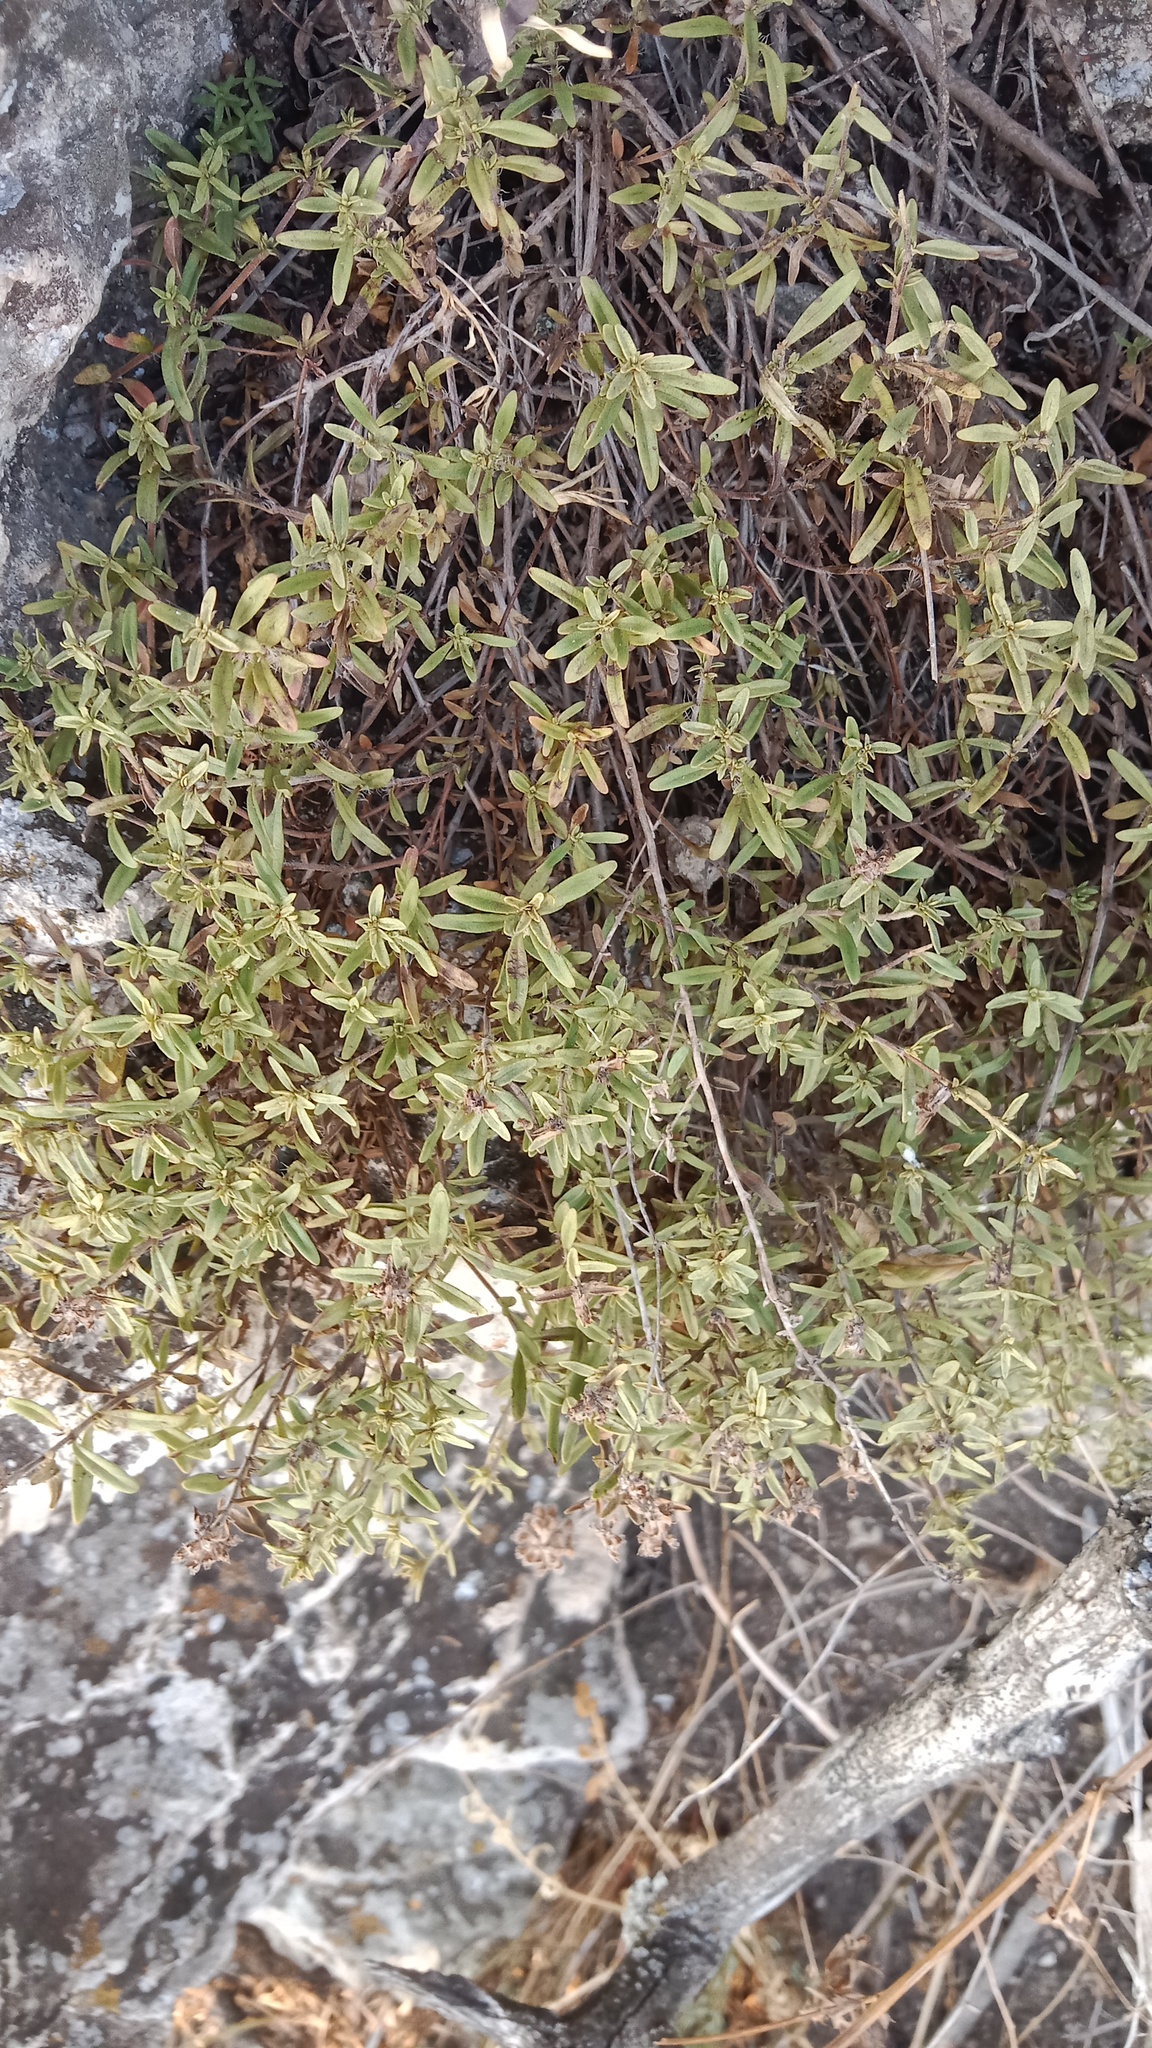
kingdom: Plantae
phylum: Tracheophyta
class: Magnoliopsida
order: Lamiales
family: Lamiaceae
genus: Thymus
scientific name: Thymus dimorphus
